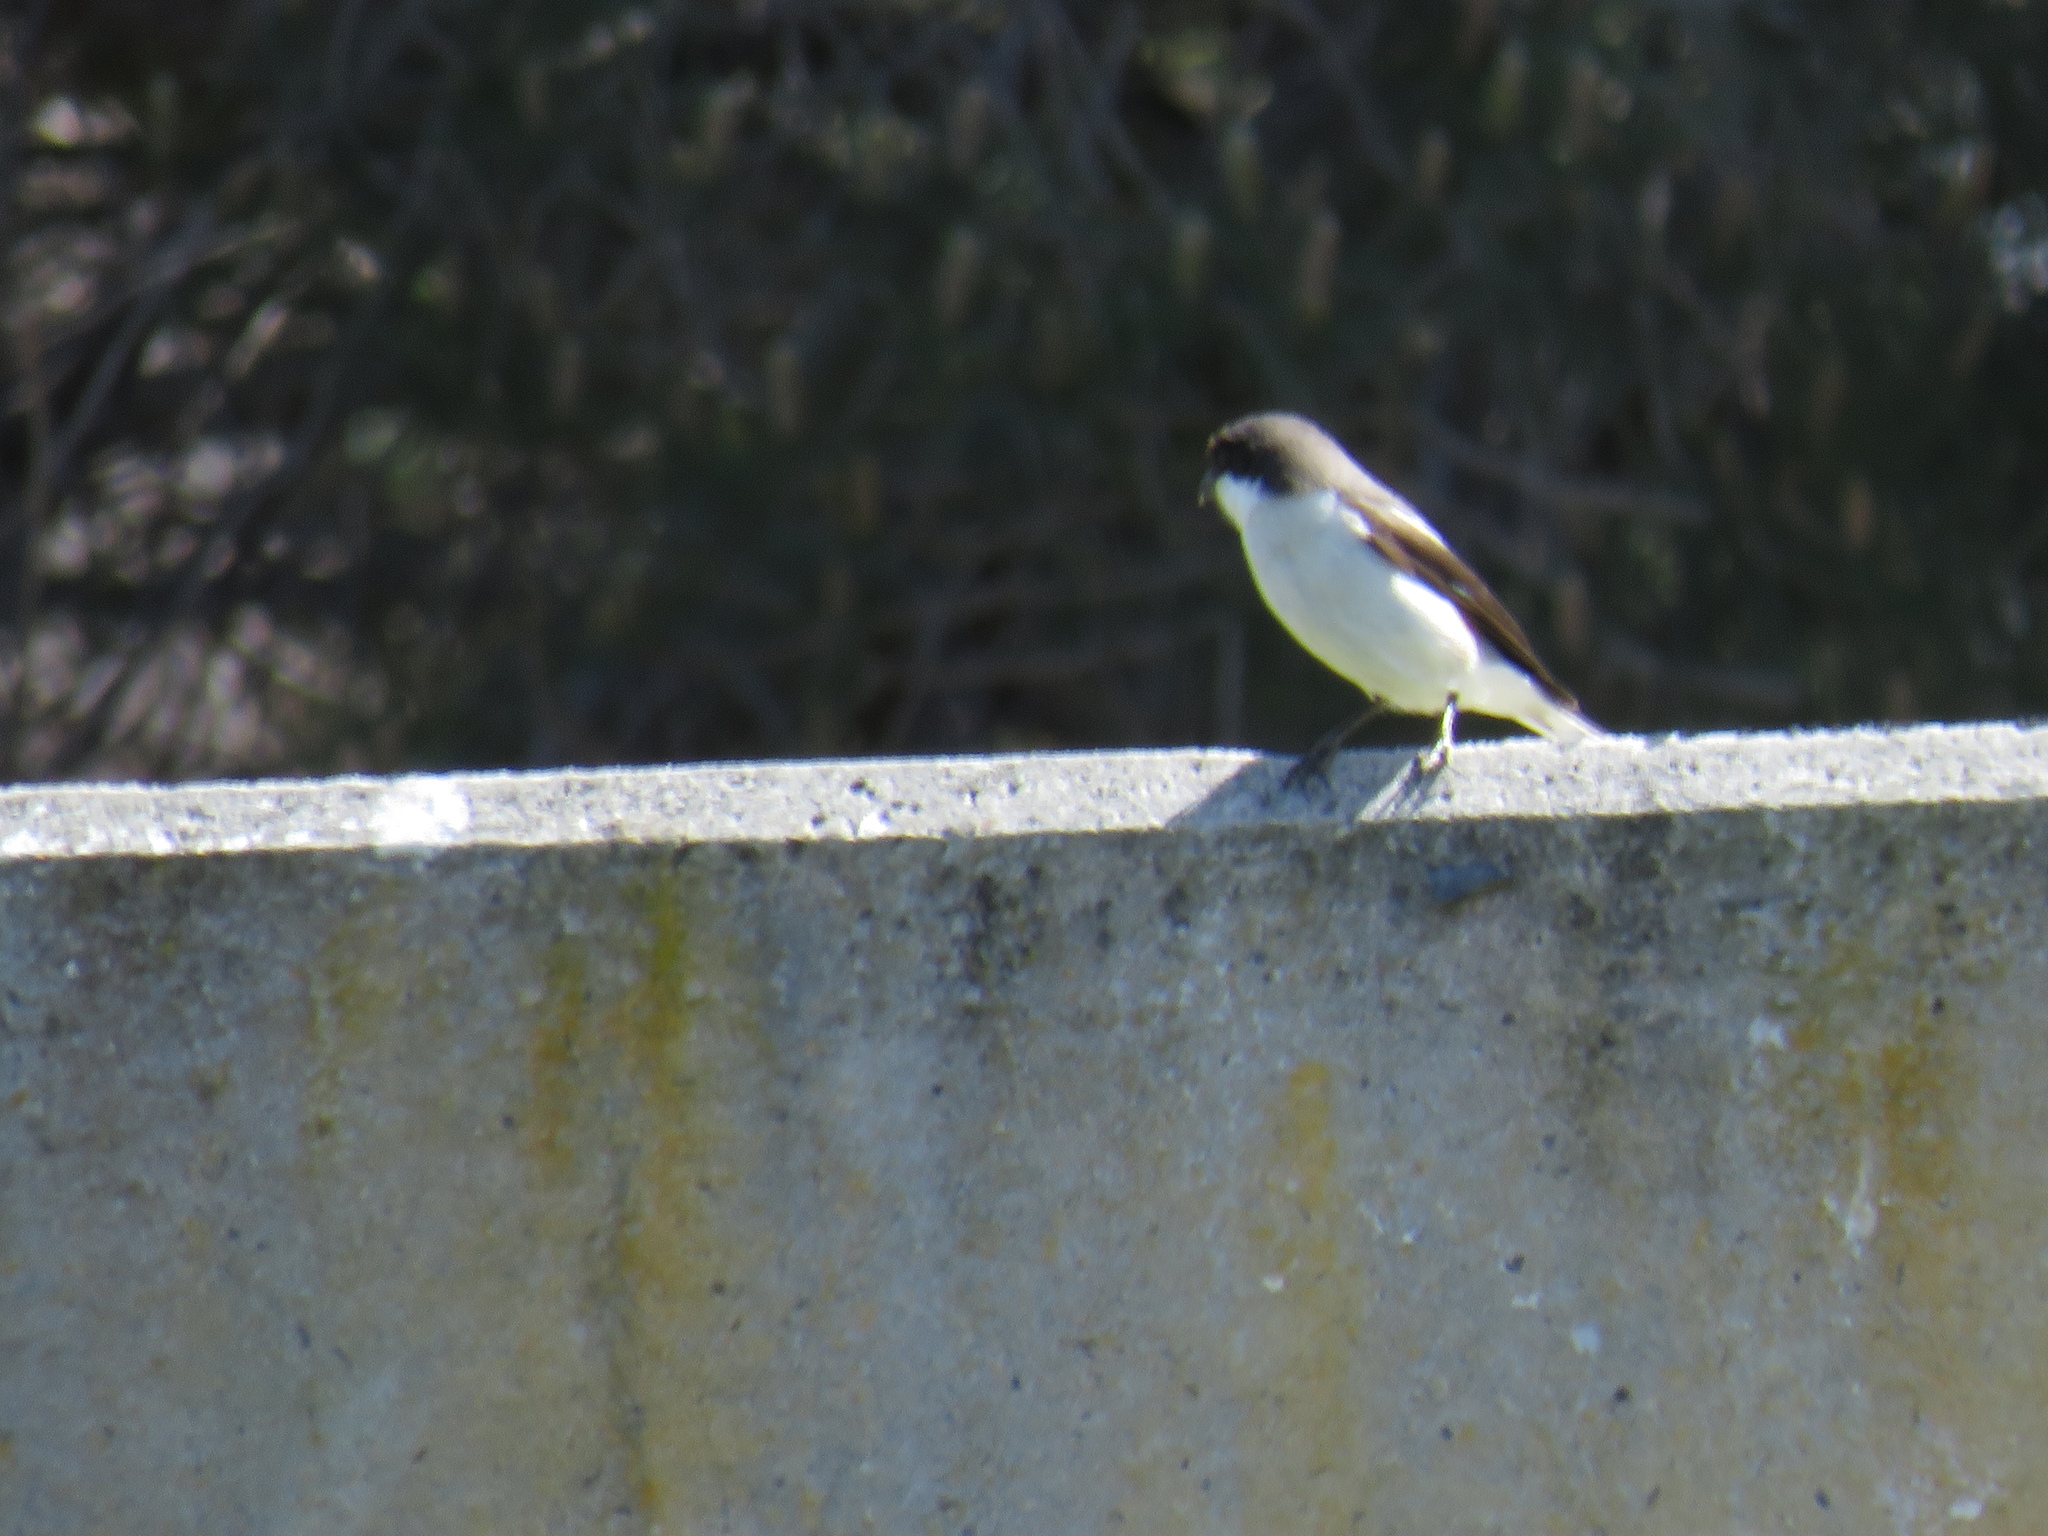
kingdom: Animalia
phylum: Chordata
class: Aves
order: Passeriformes
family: Laniidae
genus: Lanius
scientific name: Lanius collaris
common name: Southern fiscal
